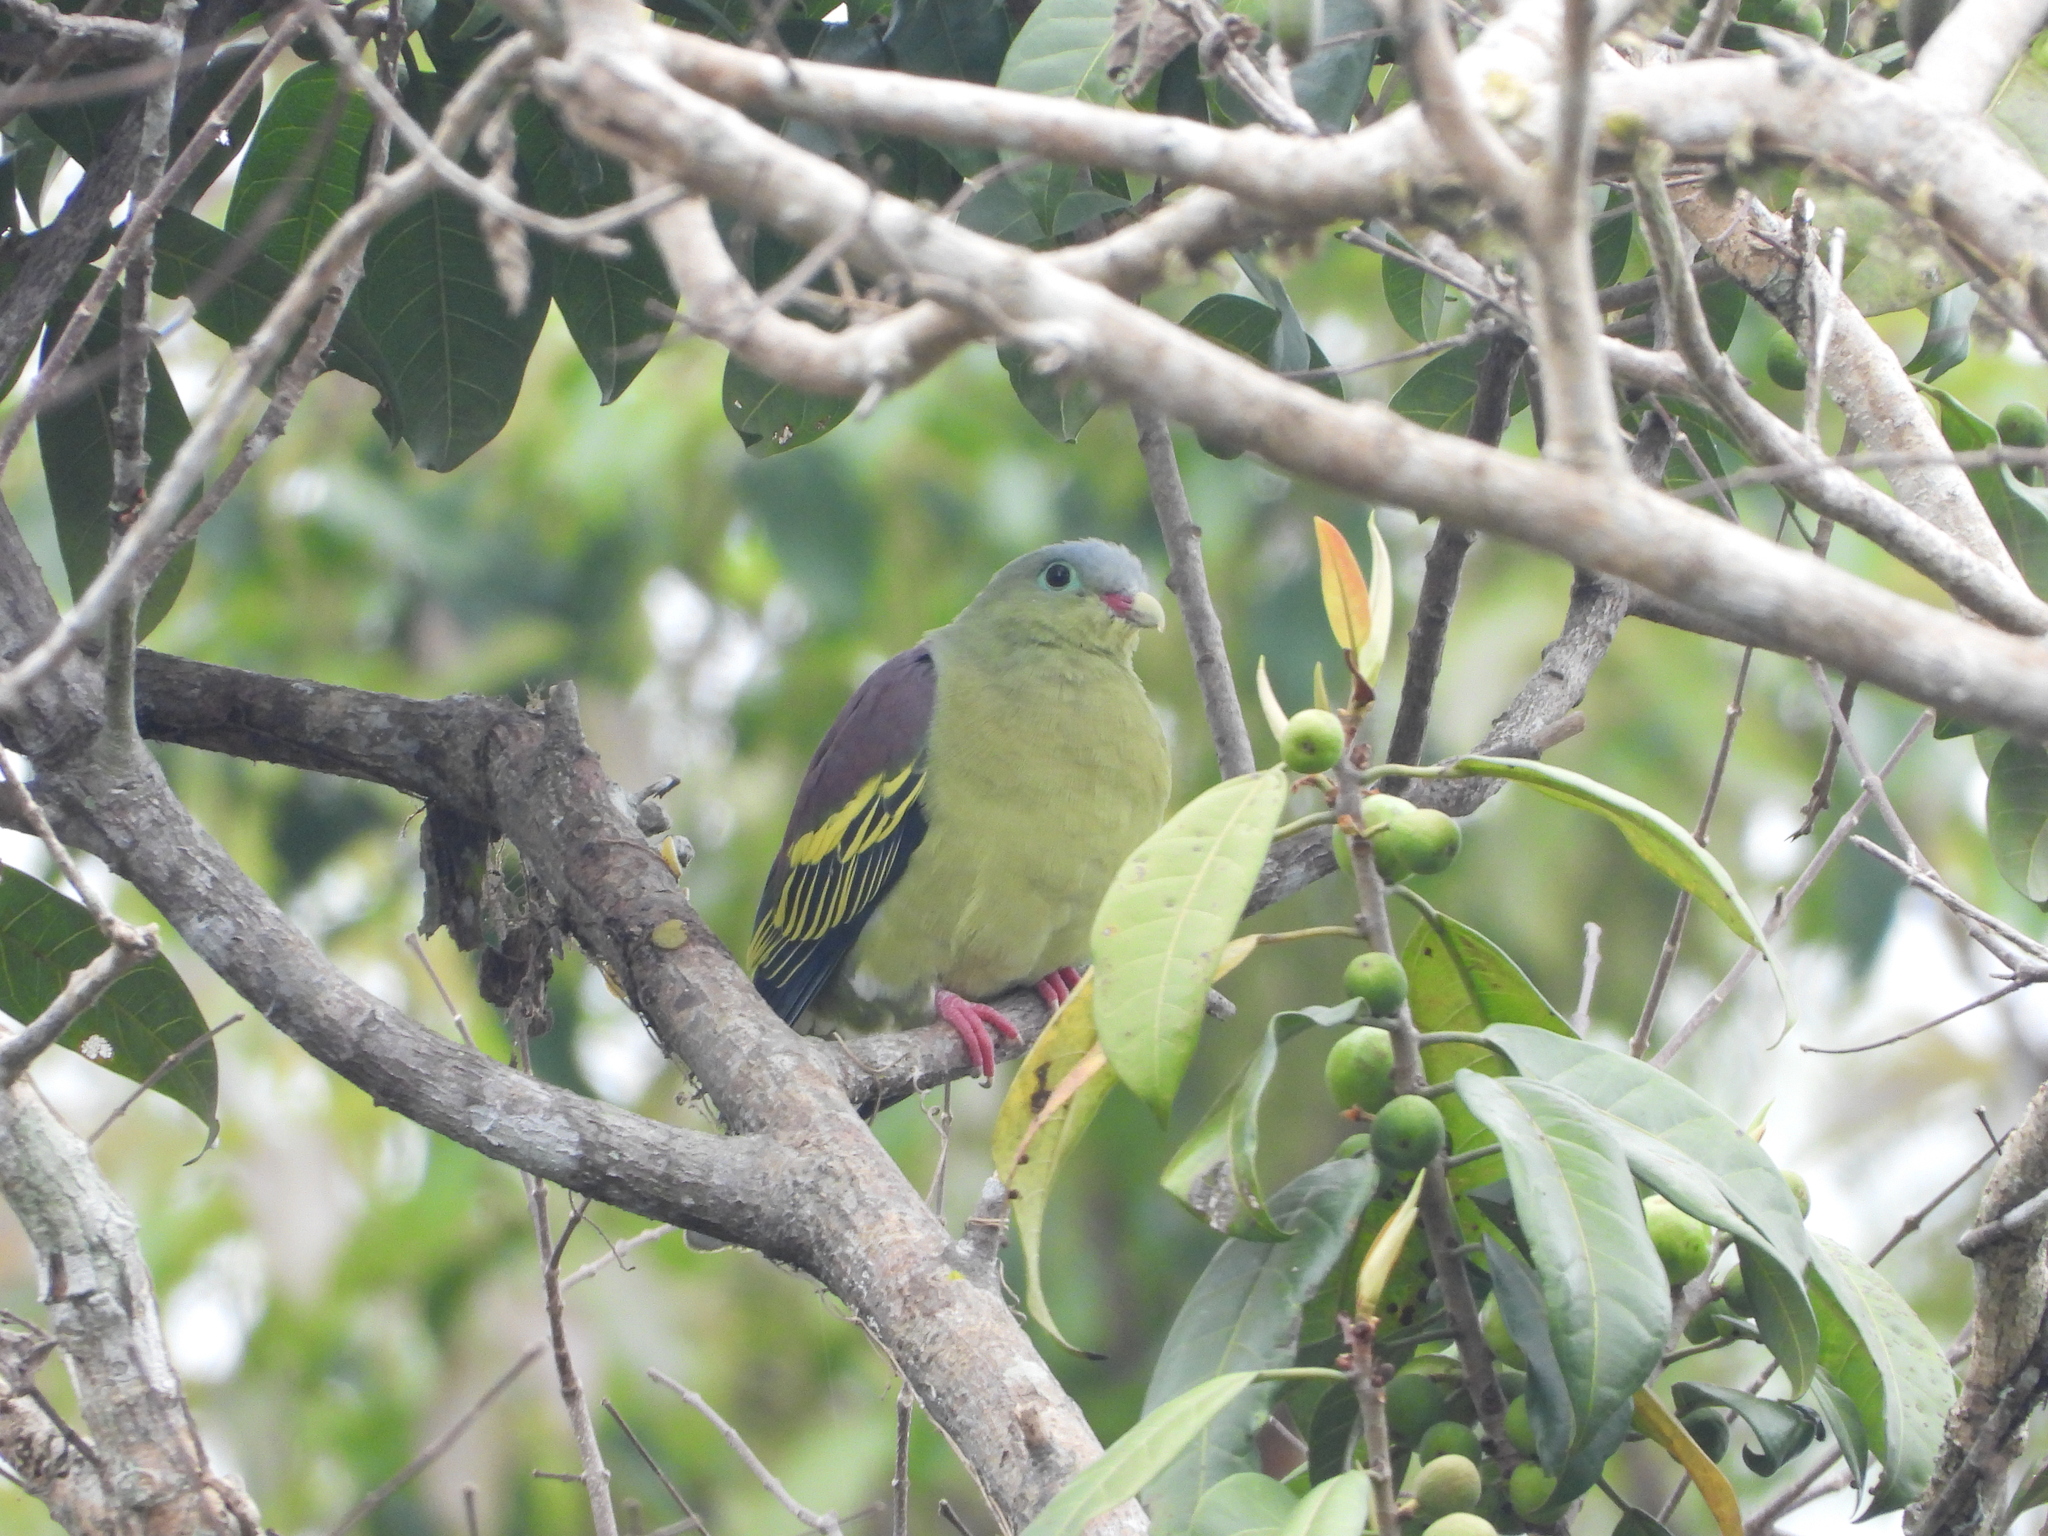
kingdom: Animalia
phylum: Chordata
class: Aves
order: Columbiformes
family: Columbidae
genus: Treron
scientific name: Treron curvirostra
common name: Thick-billed green pigeon
